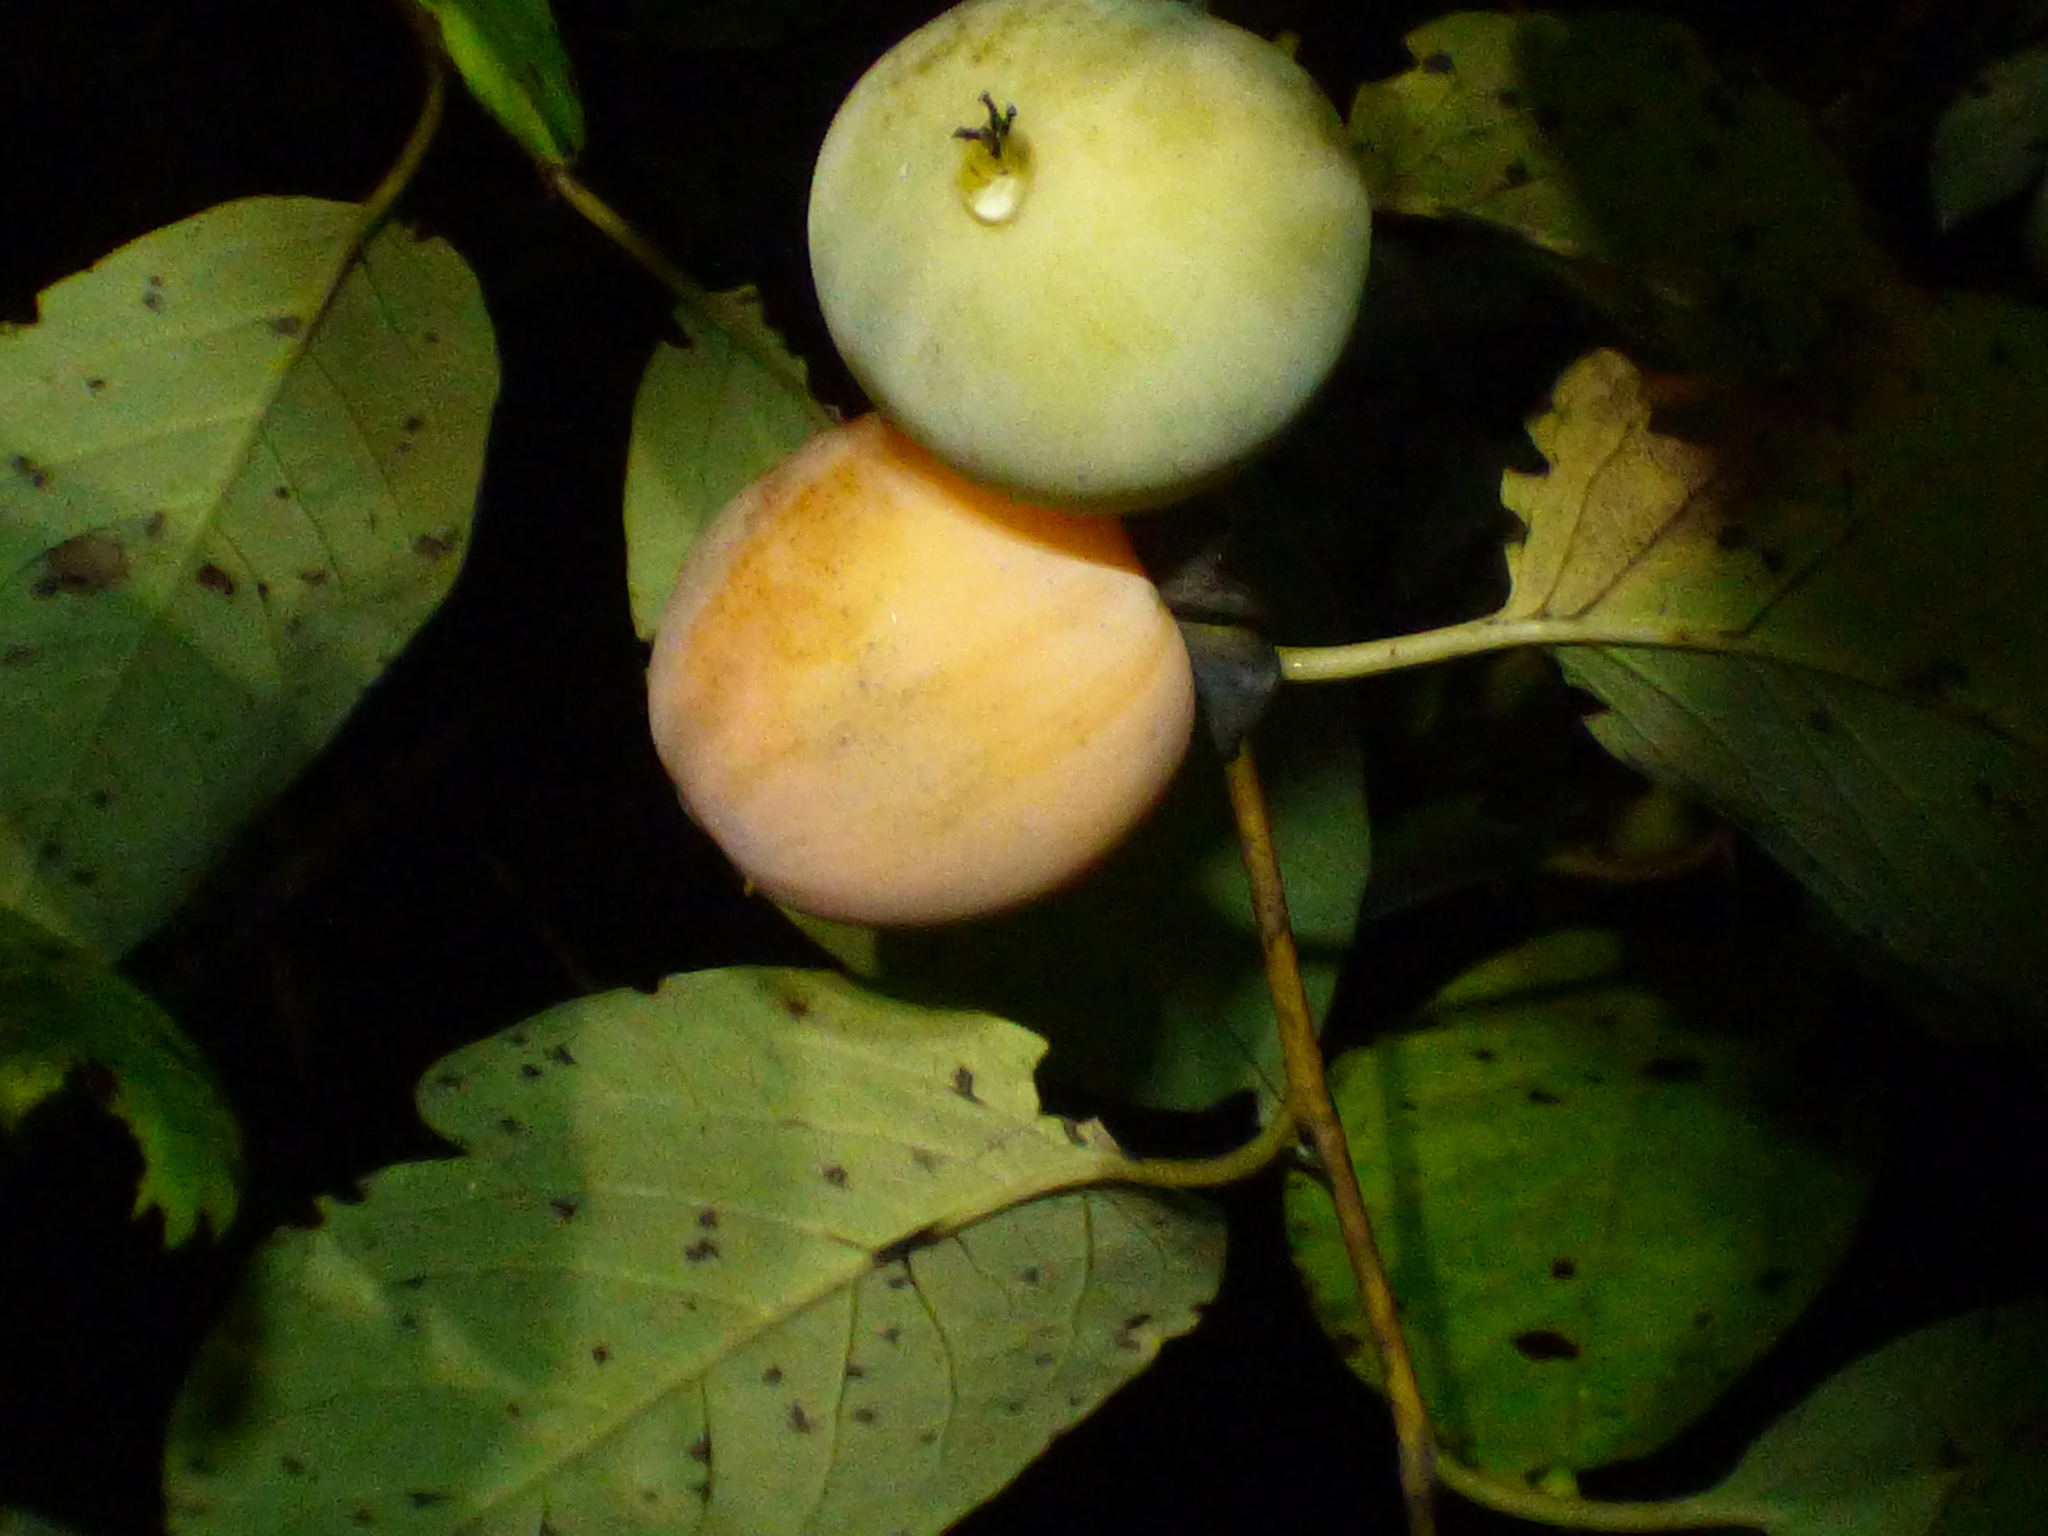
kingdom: Plantae
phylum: Tracheophyta
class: Magnoliopsida
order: Ericales
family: Ebenaceae
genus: Diospyros
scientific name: Diospyros virginiana
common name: Persimmon
